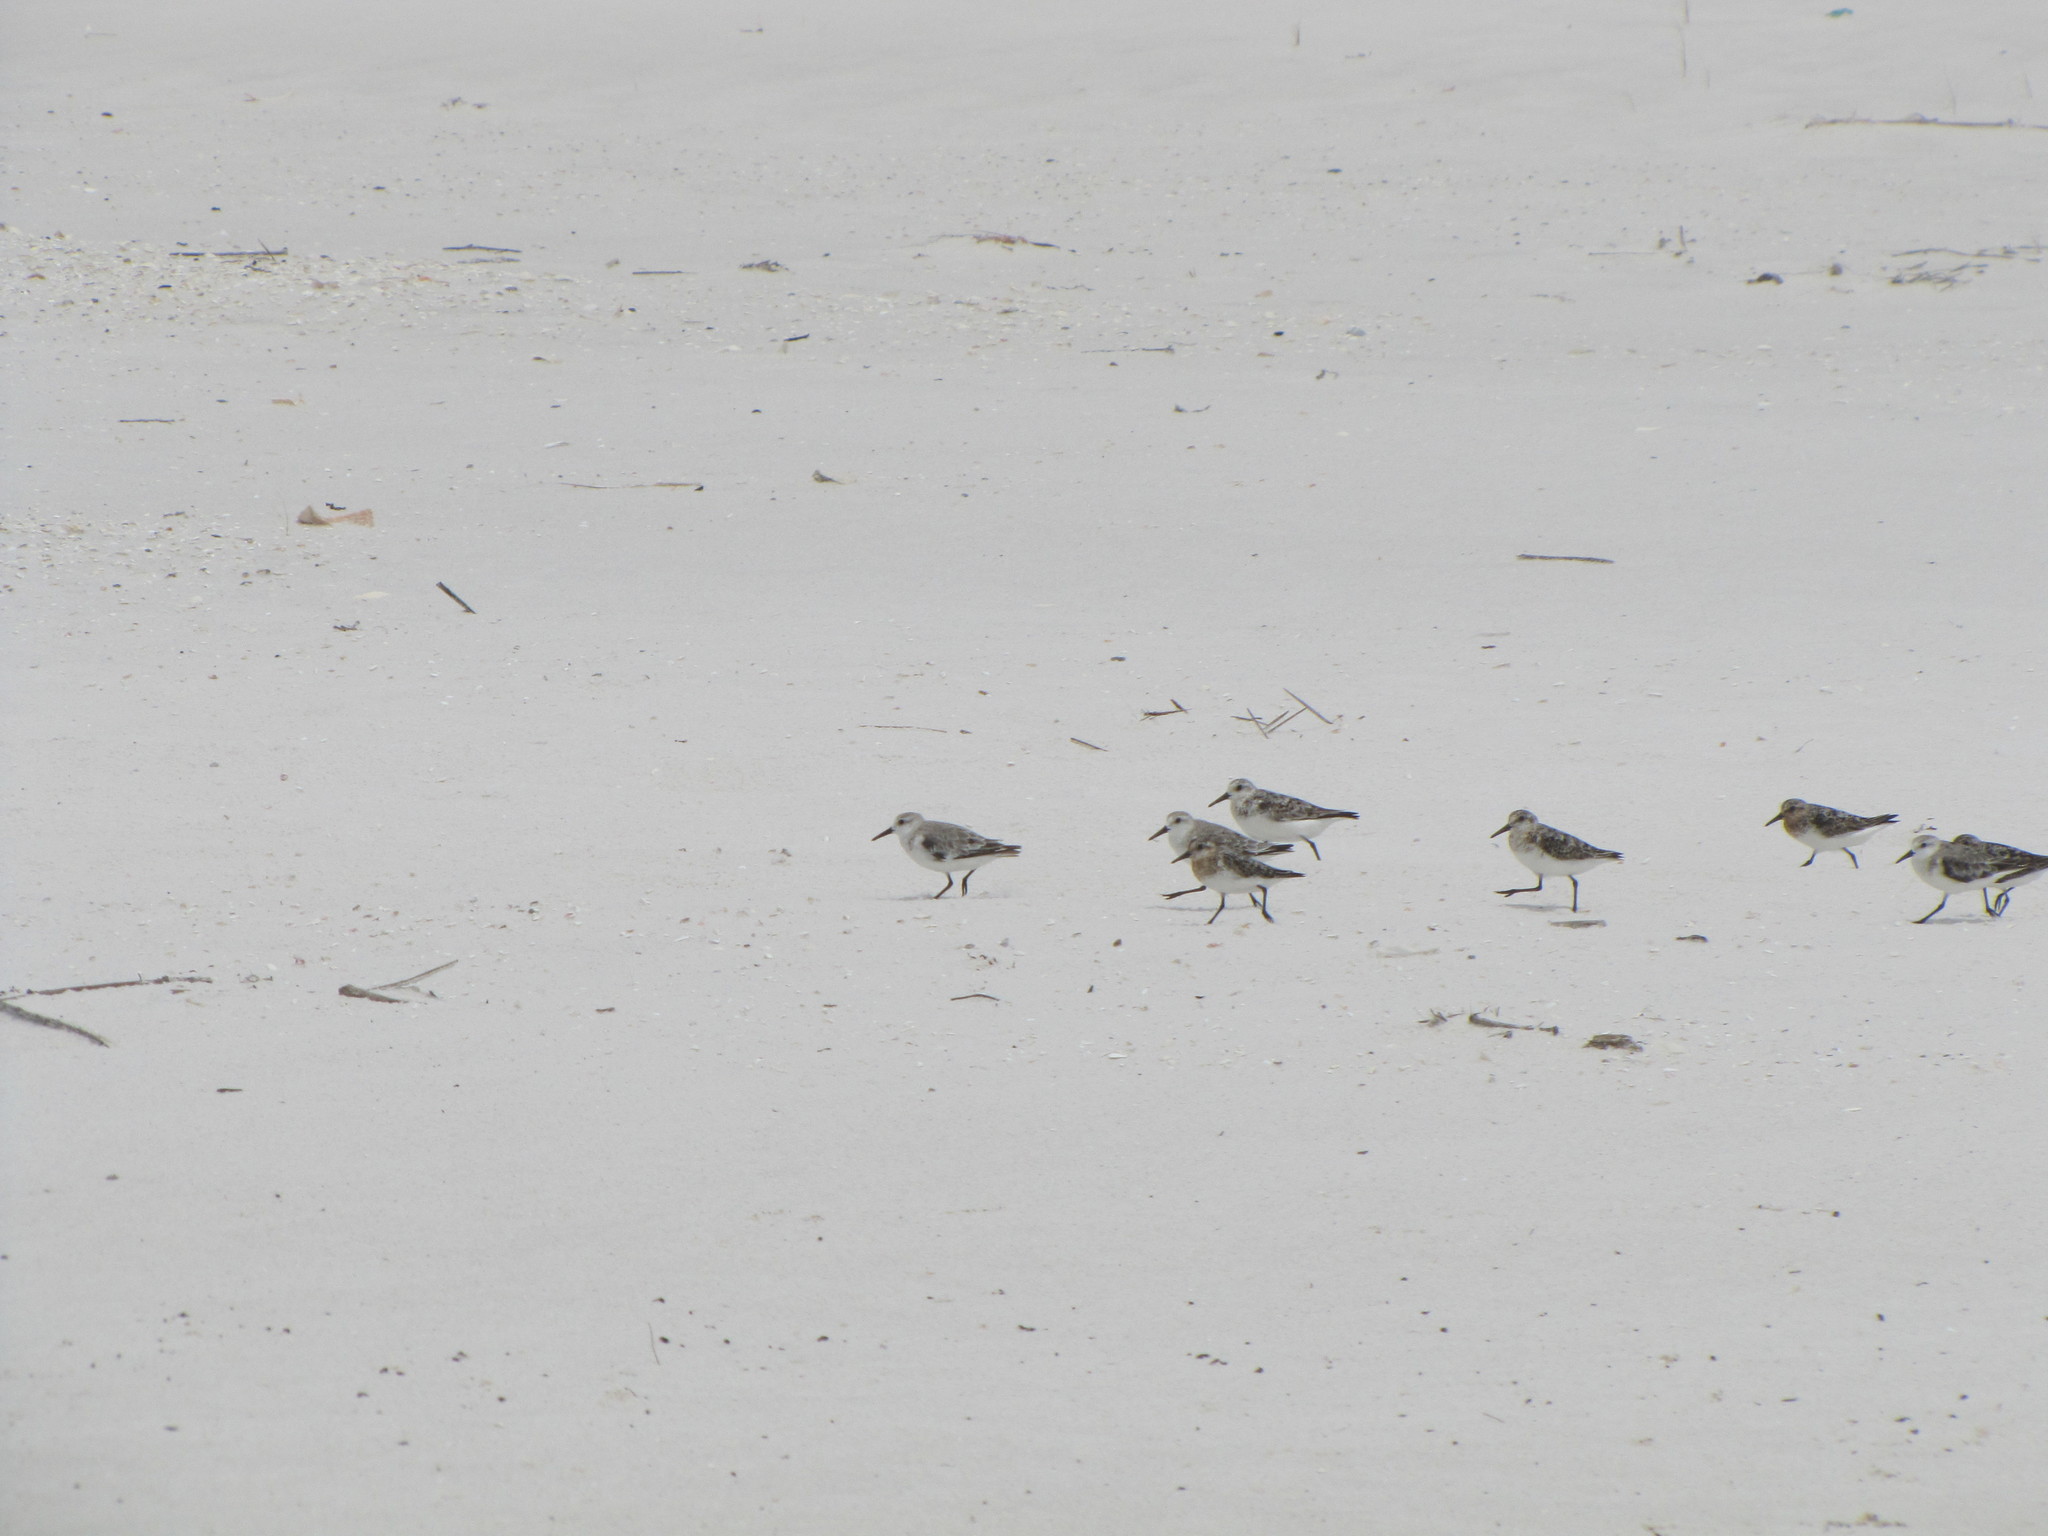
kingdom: Animalia
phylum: Chordata
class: Aves
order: Charadriiformes
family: Scolopacidae
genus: Calidris
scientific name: Calidris alba
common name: Sanderling
